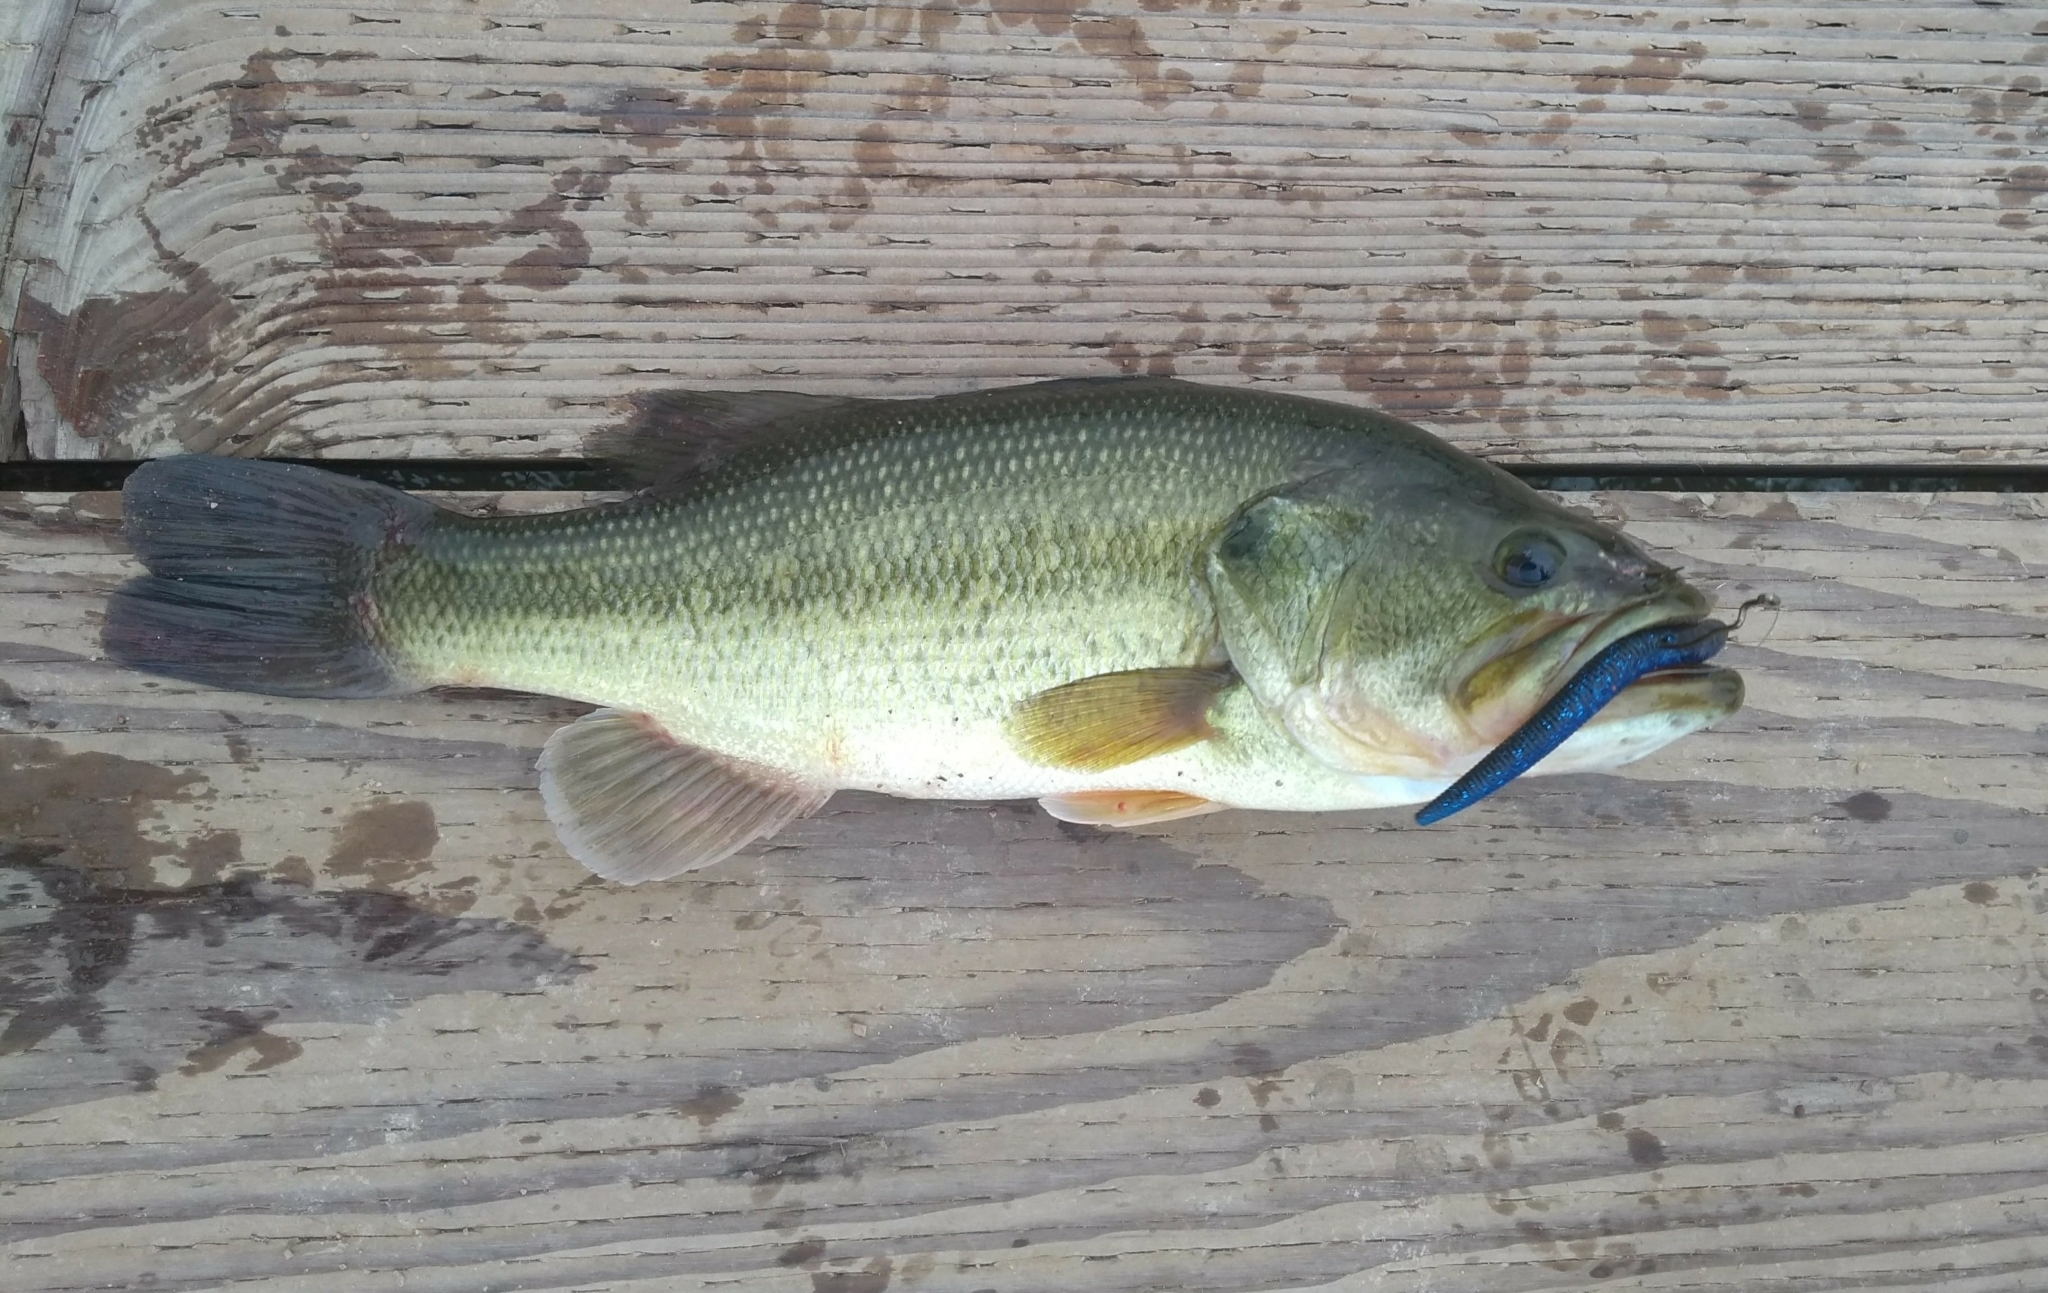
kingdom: Animalia
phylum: Chordata
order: Perciformes
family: Centrarchidae
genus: Micropterus
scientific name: Micropterus
